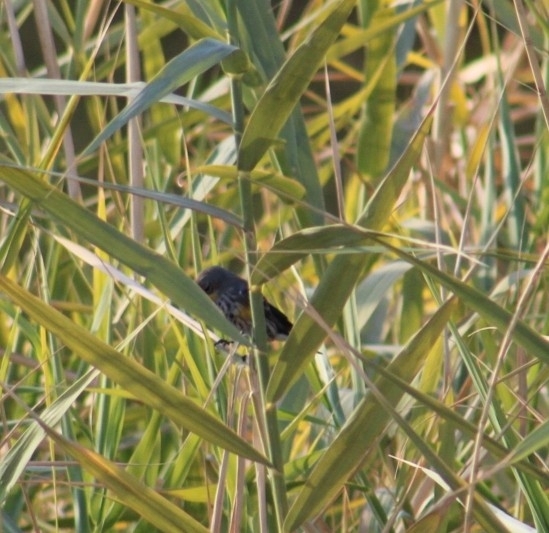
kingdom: Animalia
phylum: Chordata
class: Aves
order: Passeriformes
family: Parulidae
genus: Setophaga
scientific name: Setophaga coronata
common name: Myrtle warbler
